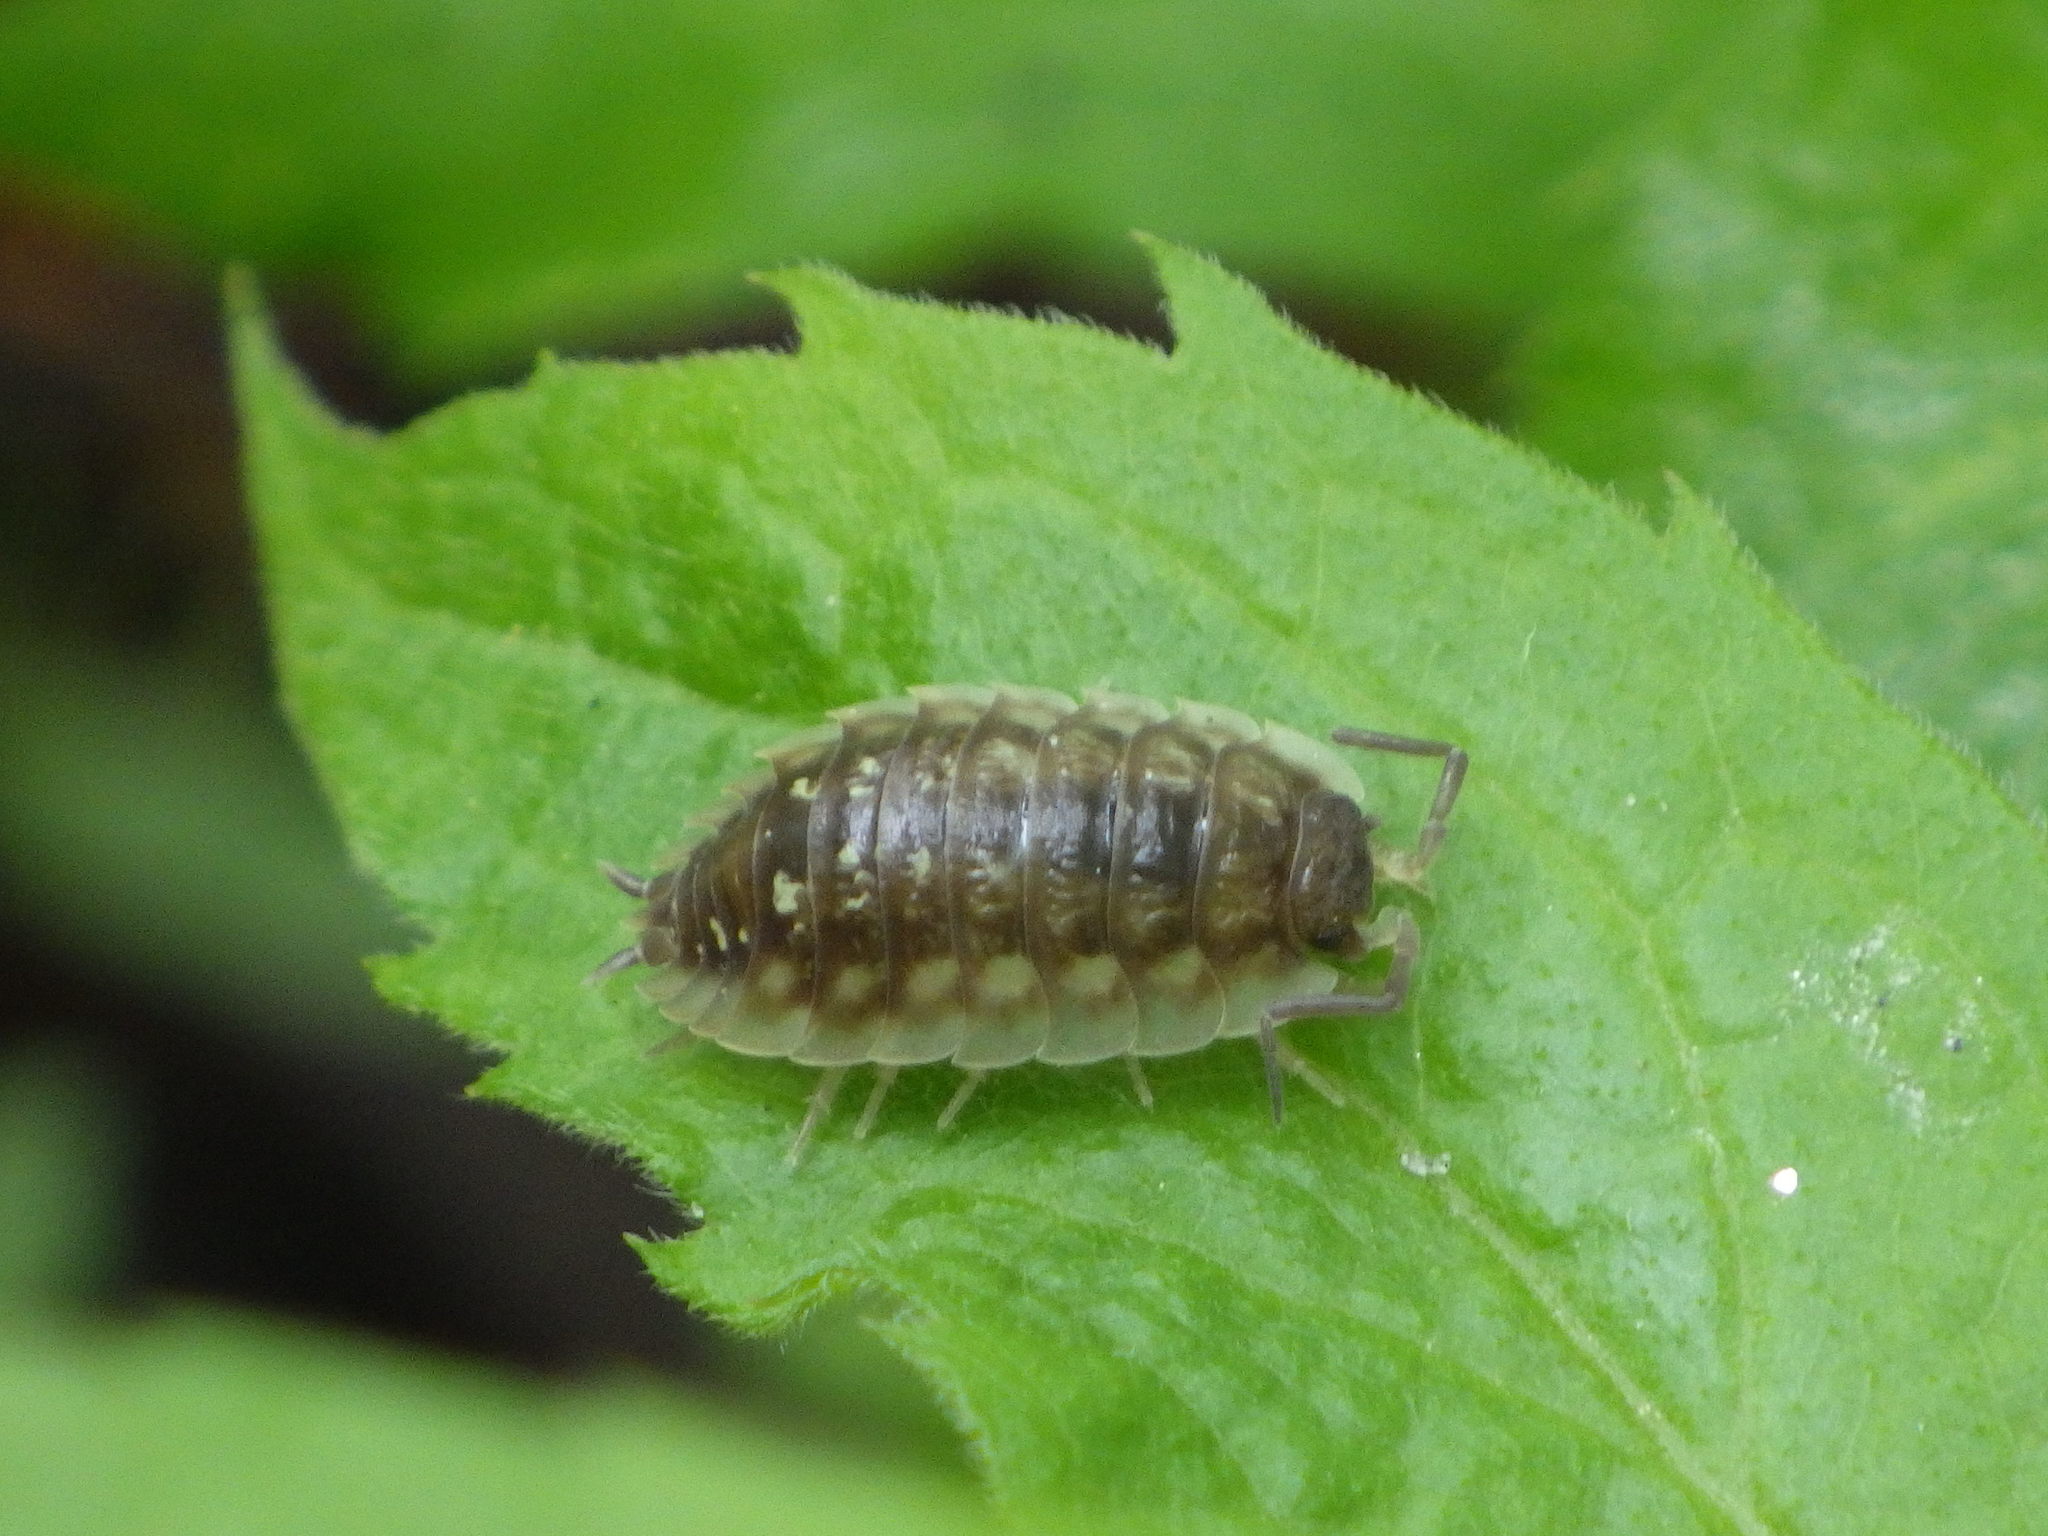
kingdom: Animalia
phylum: Arthropoda
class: Malacostraca
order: Isopoda
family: Oniscidae
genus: Oniscus
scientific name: Oniscus asellus
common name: Common shiny woodlouse
